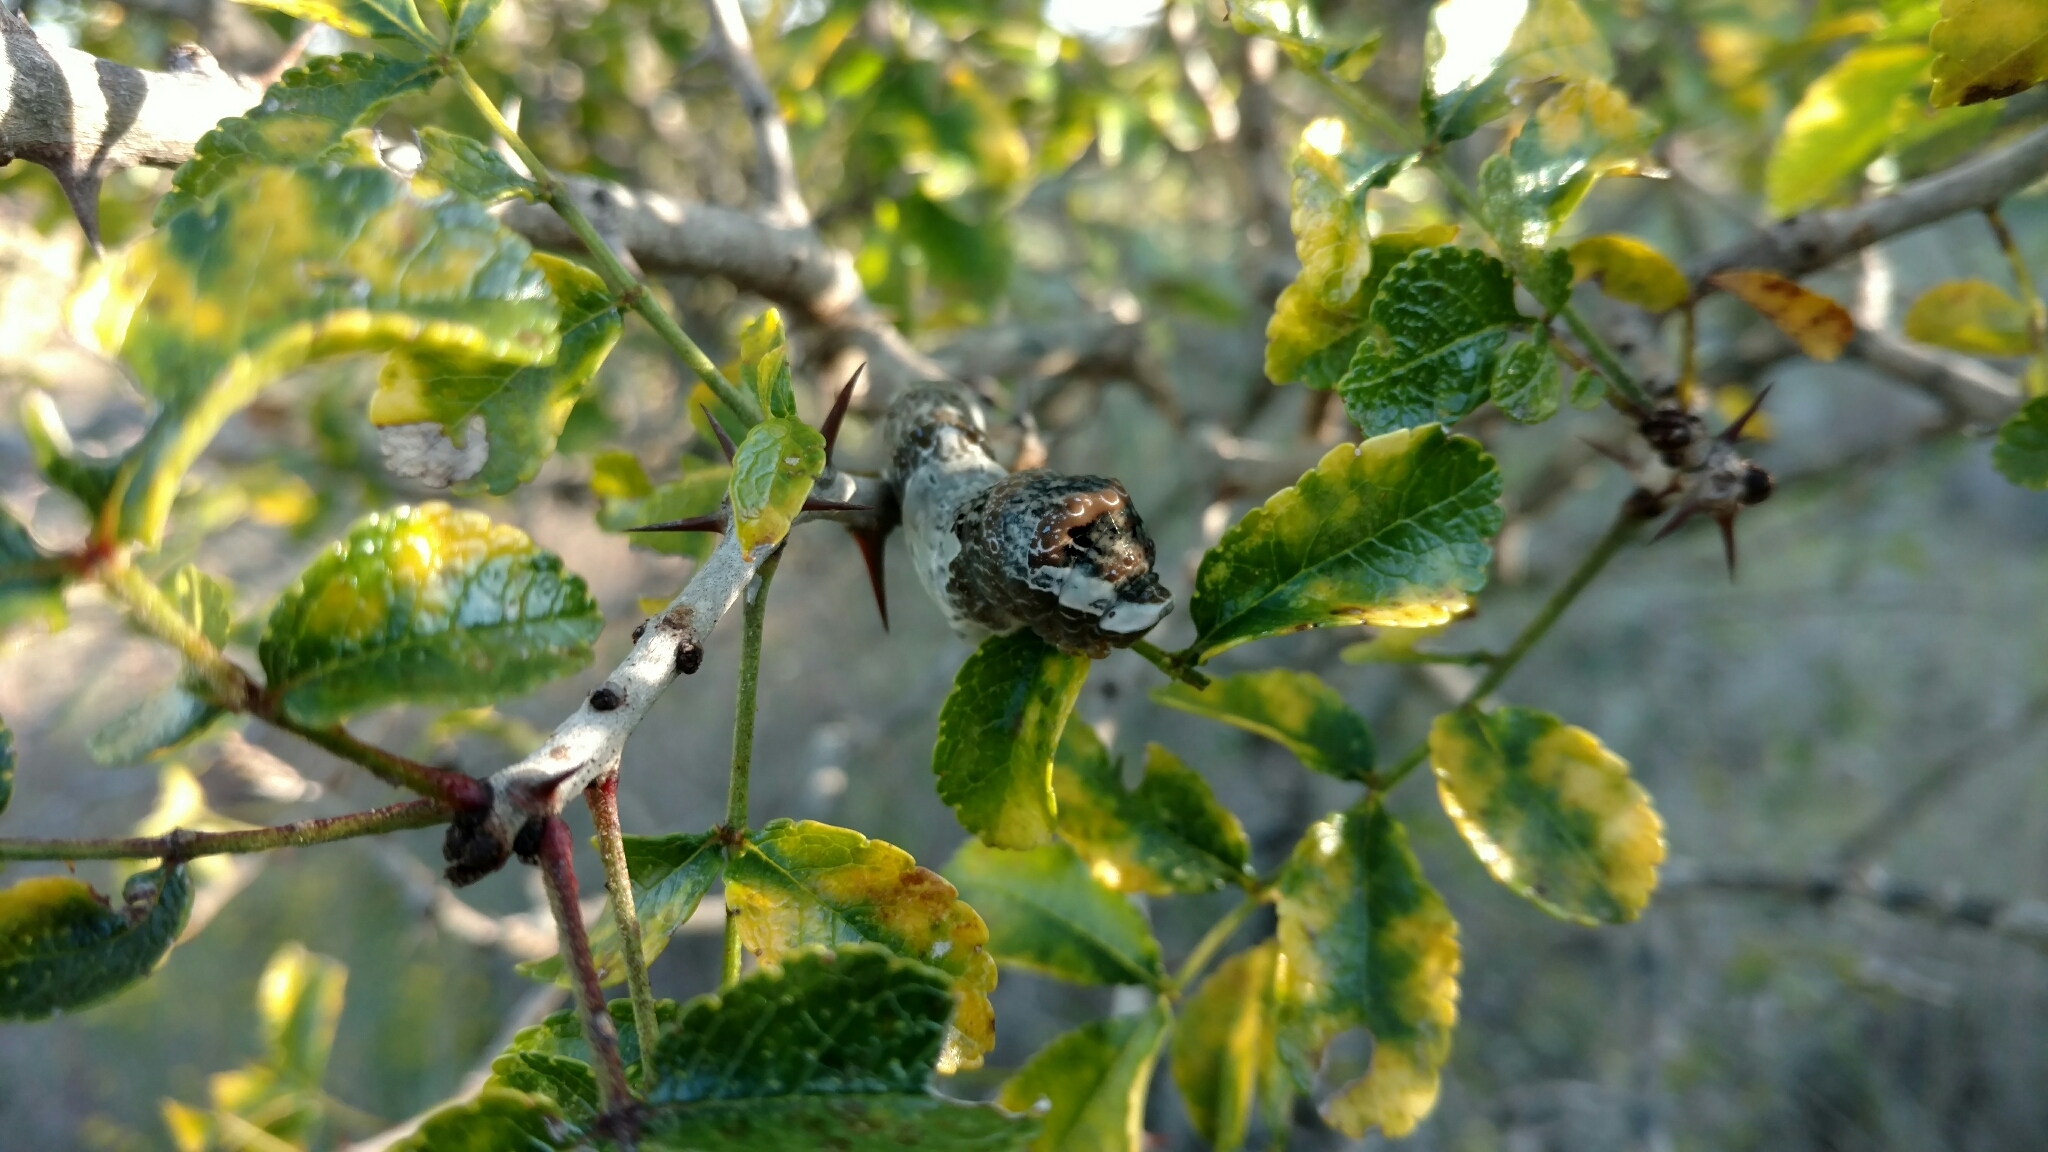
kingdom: Animalia
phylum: Arthropoda
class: Insecta
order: Lepidoptera
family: Papilionidae
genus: Papilio
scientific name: Papilio cresphontes
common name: Giant swallowtail
